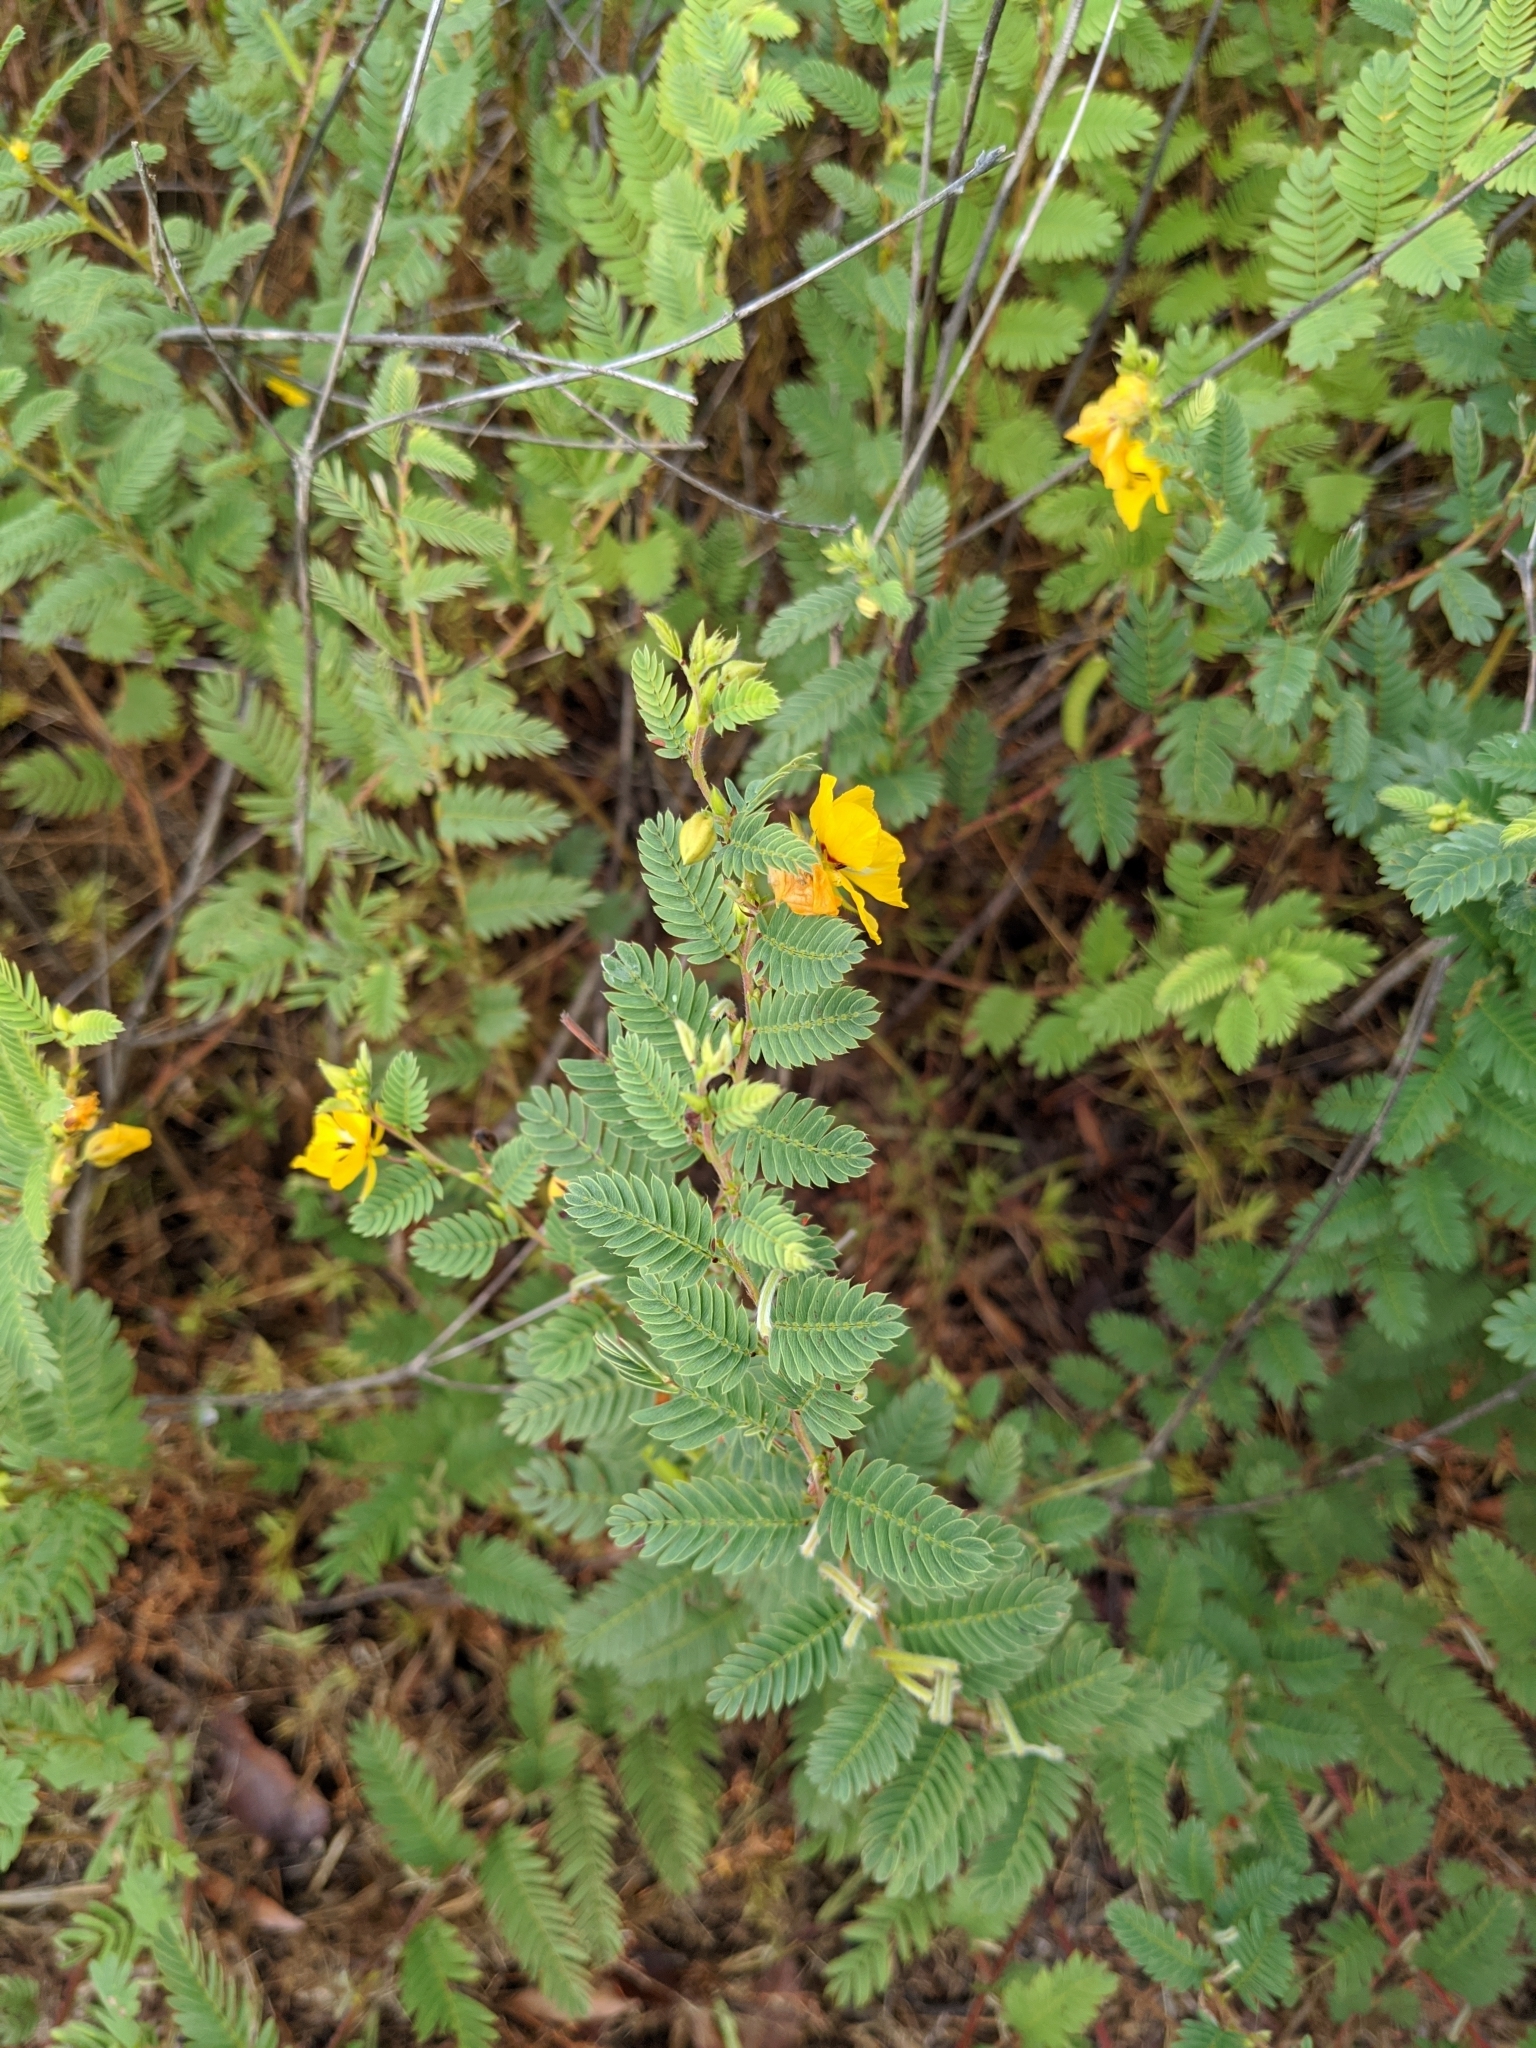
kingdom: Plantae
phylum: Tracheophyta
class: Magnoliopsida
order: Fabales
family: Fabaceae
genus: Chamaecrista
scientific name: Chamaecrista fasciculata
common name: Golden cassia
